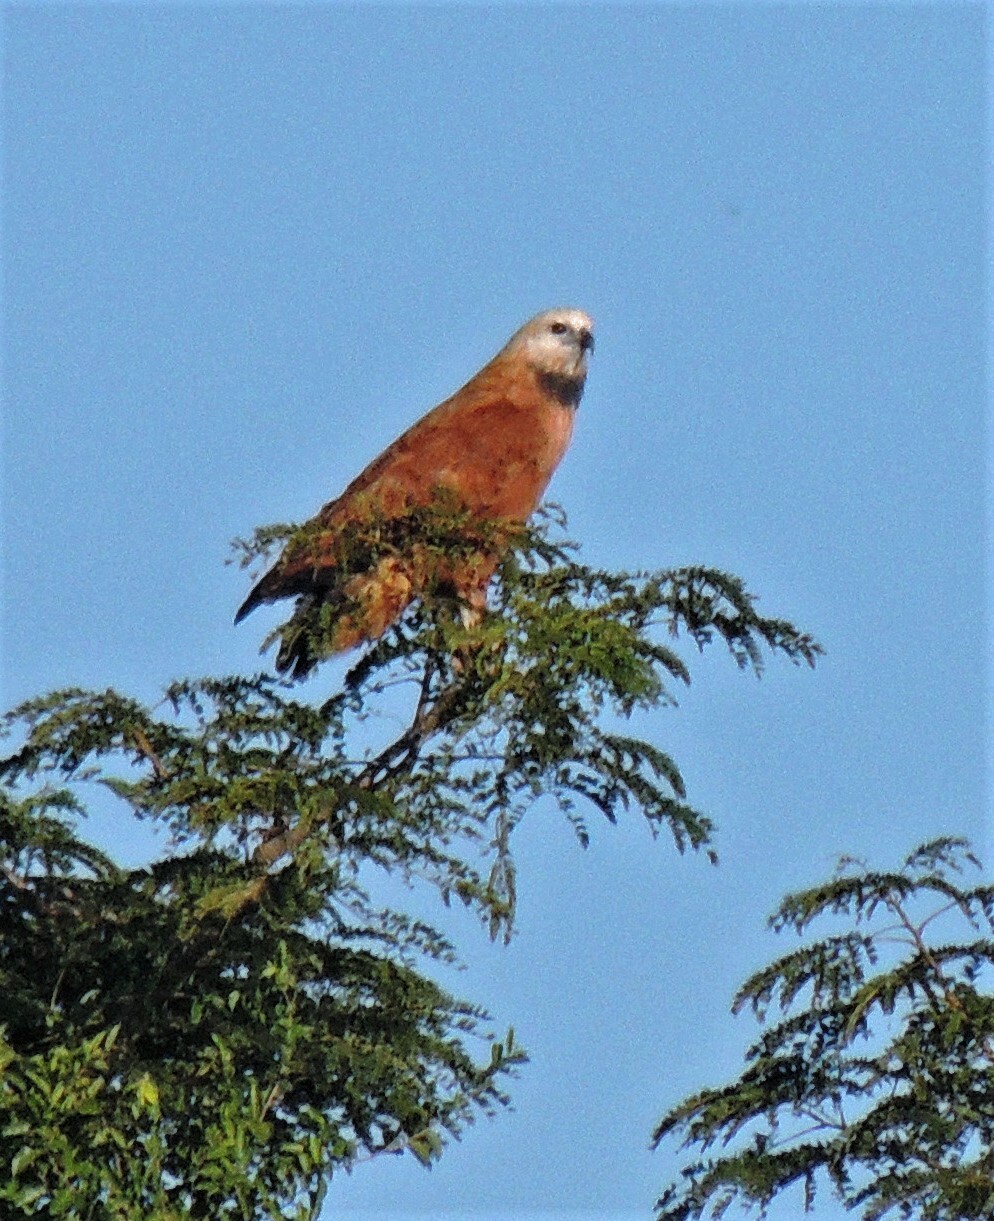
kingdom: Animalia
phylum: Chordata
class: Aves
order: Accipitriformes
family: Accipitridae
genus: Busarellus
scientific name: Busarellus nigricollis
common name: Black-collared hawk
